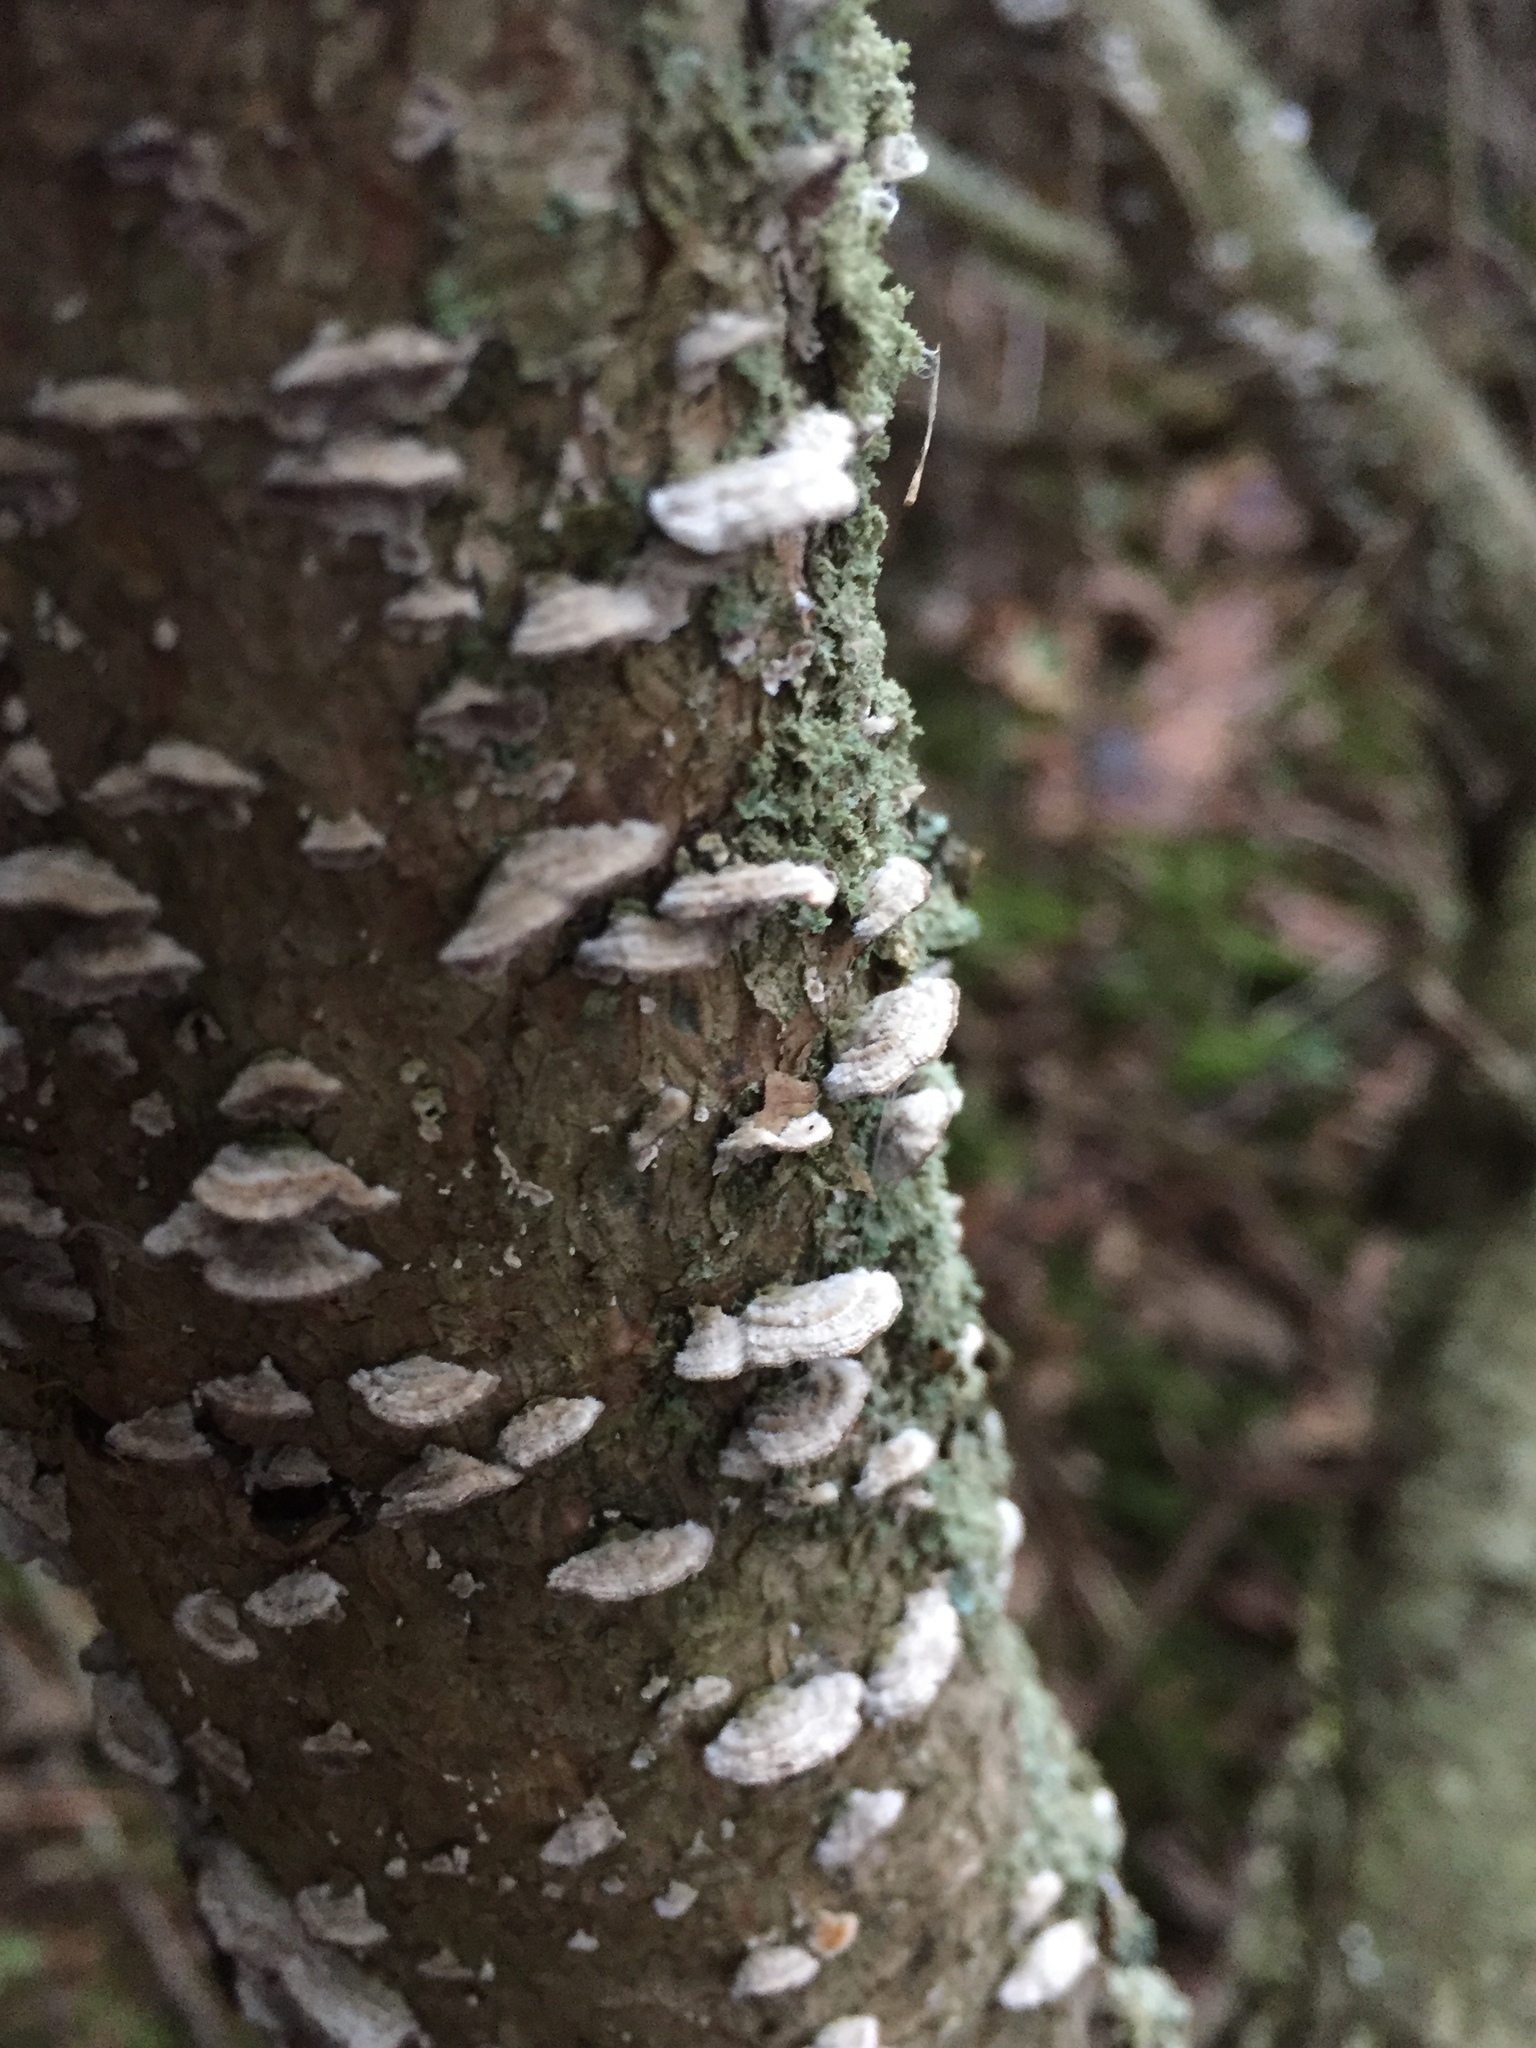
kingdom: Fungi
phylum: Basidiomycota
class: Agaricomycetes
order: Hymenochaetales
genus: Trichaptum
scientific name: Trichaptum abietinum
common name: Purplepore bracket
